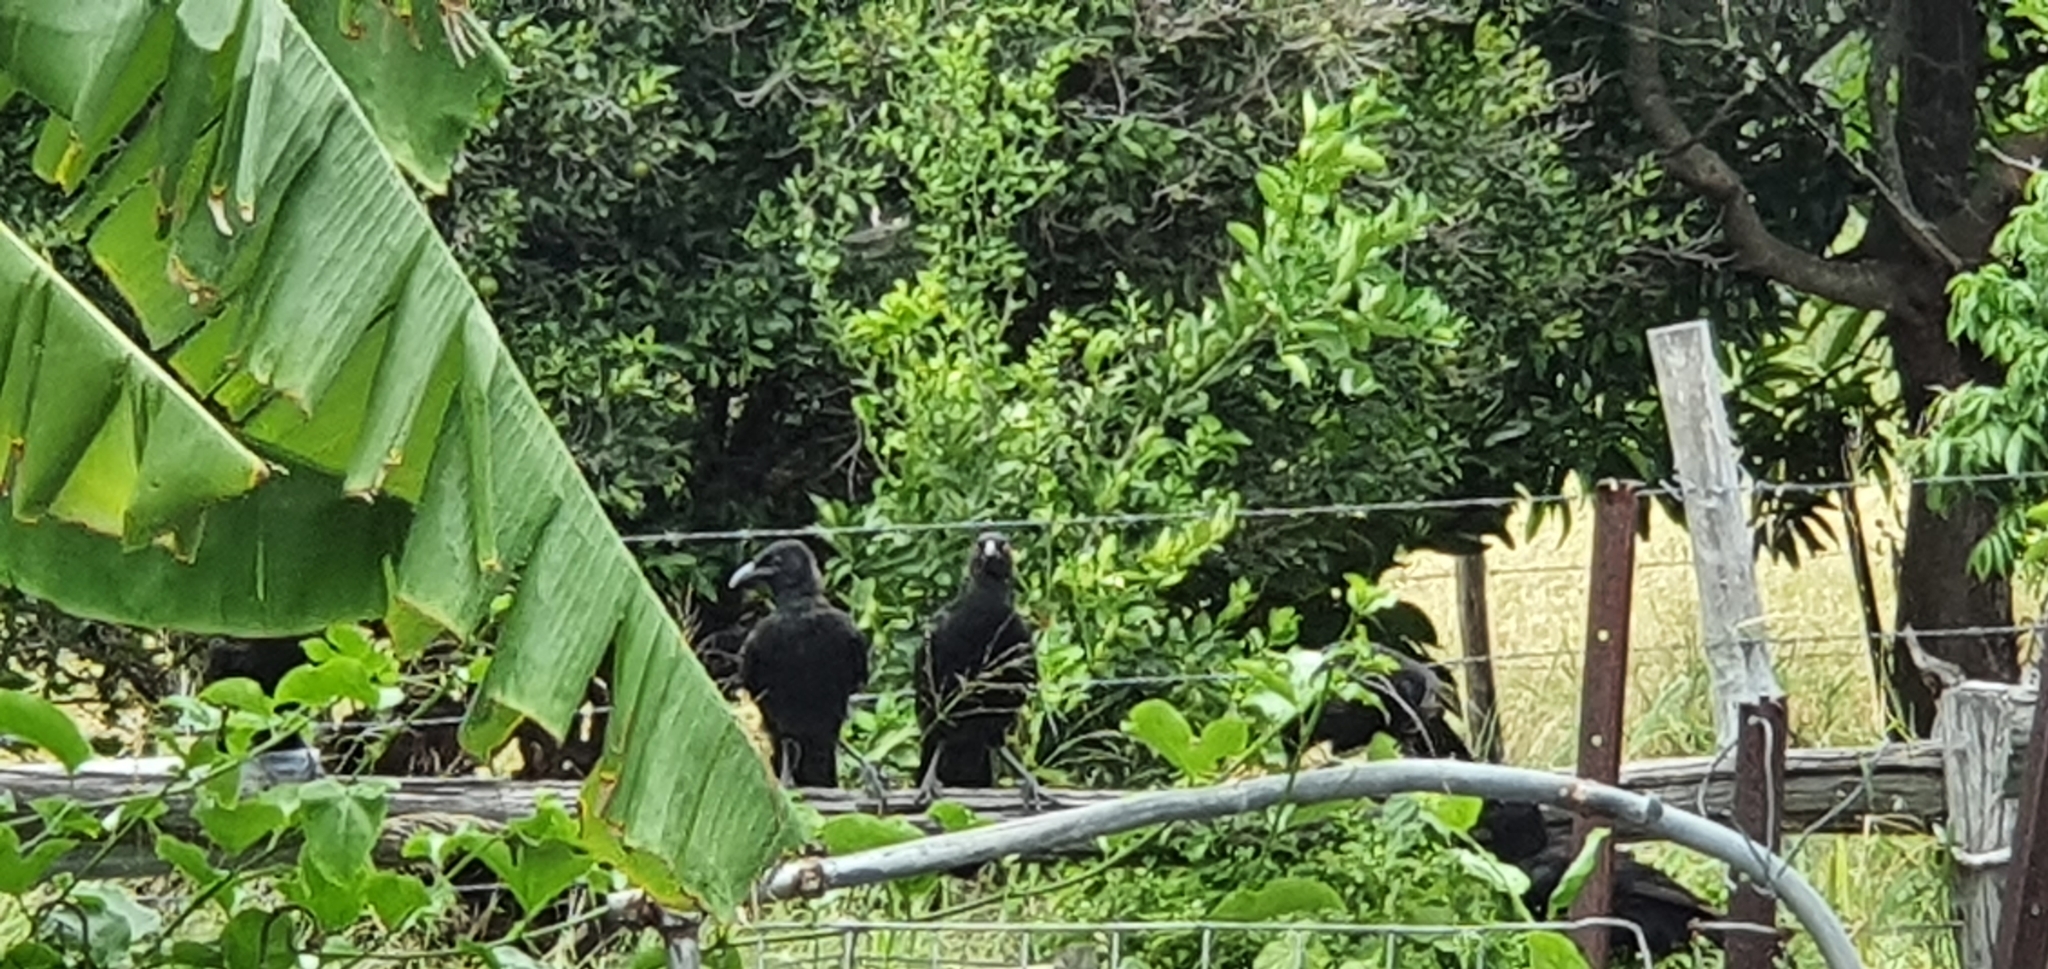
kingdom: Animalia
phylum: Chordata
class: Aves
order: Passeriformes
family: Corcoracidae
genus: Corcorax
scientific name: Corcorax melanoramphos
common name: White-winged chough
